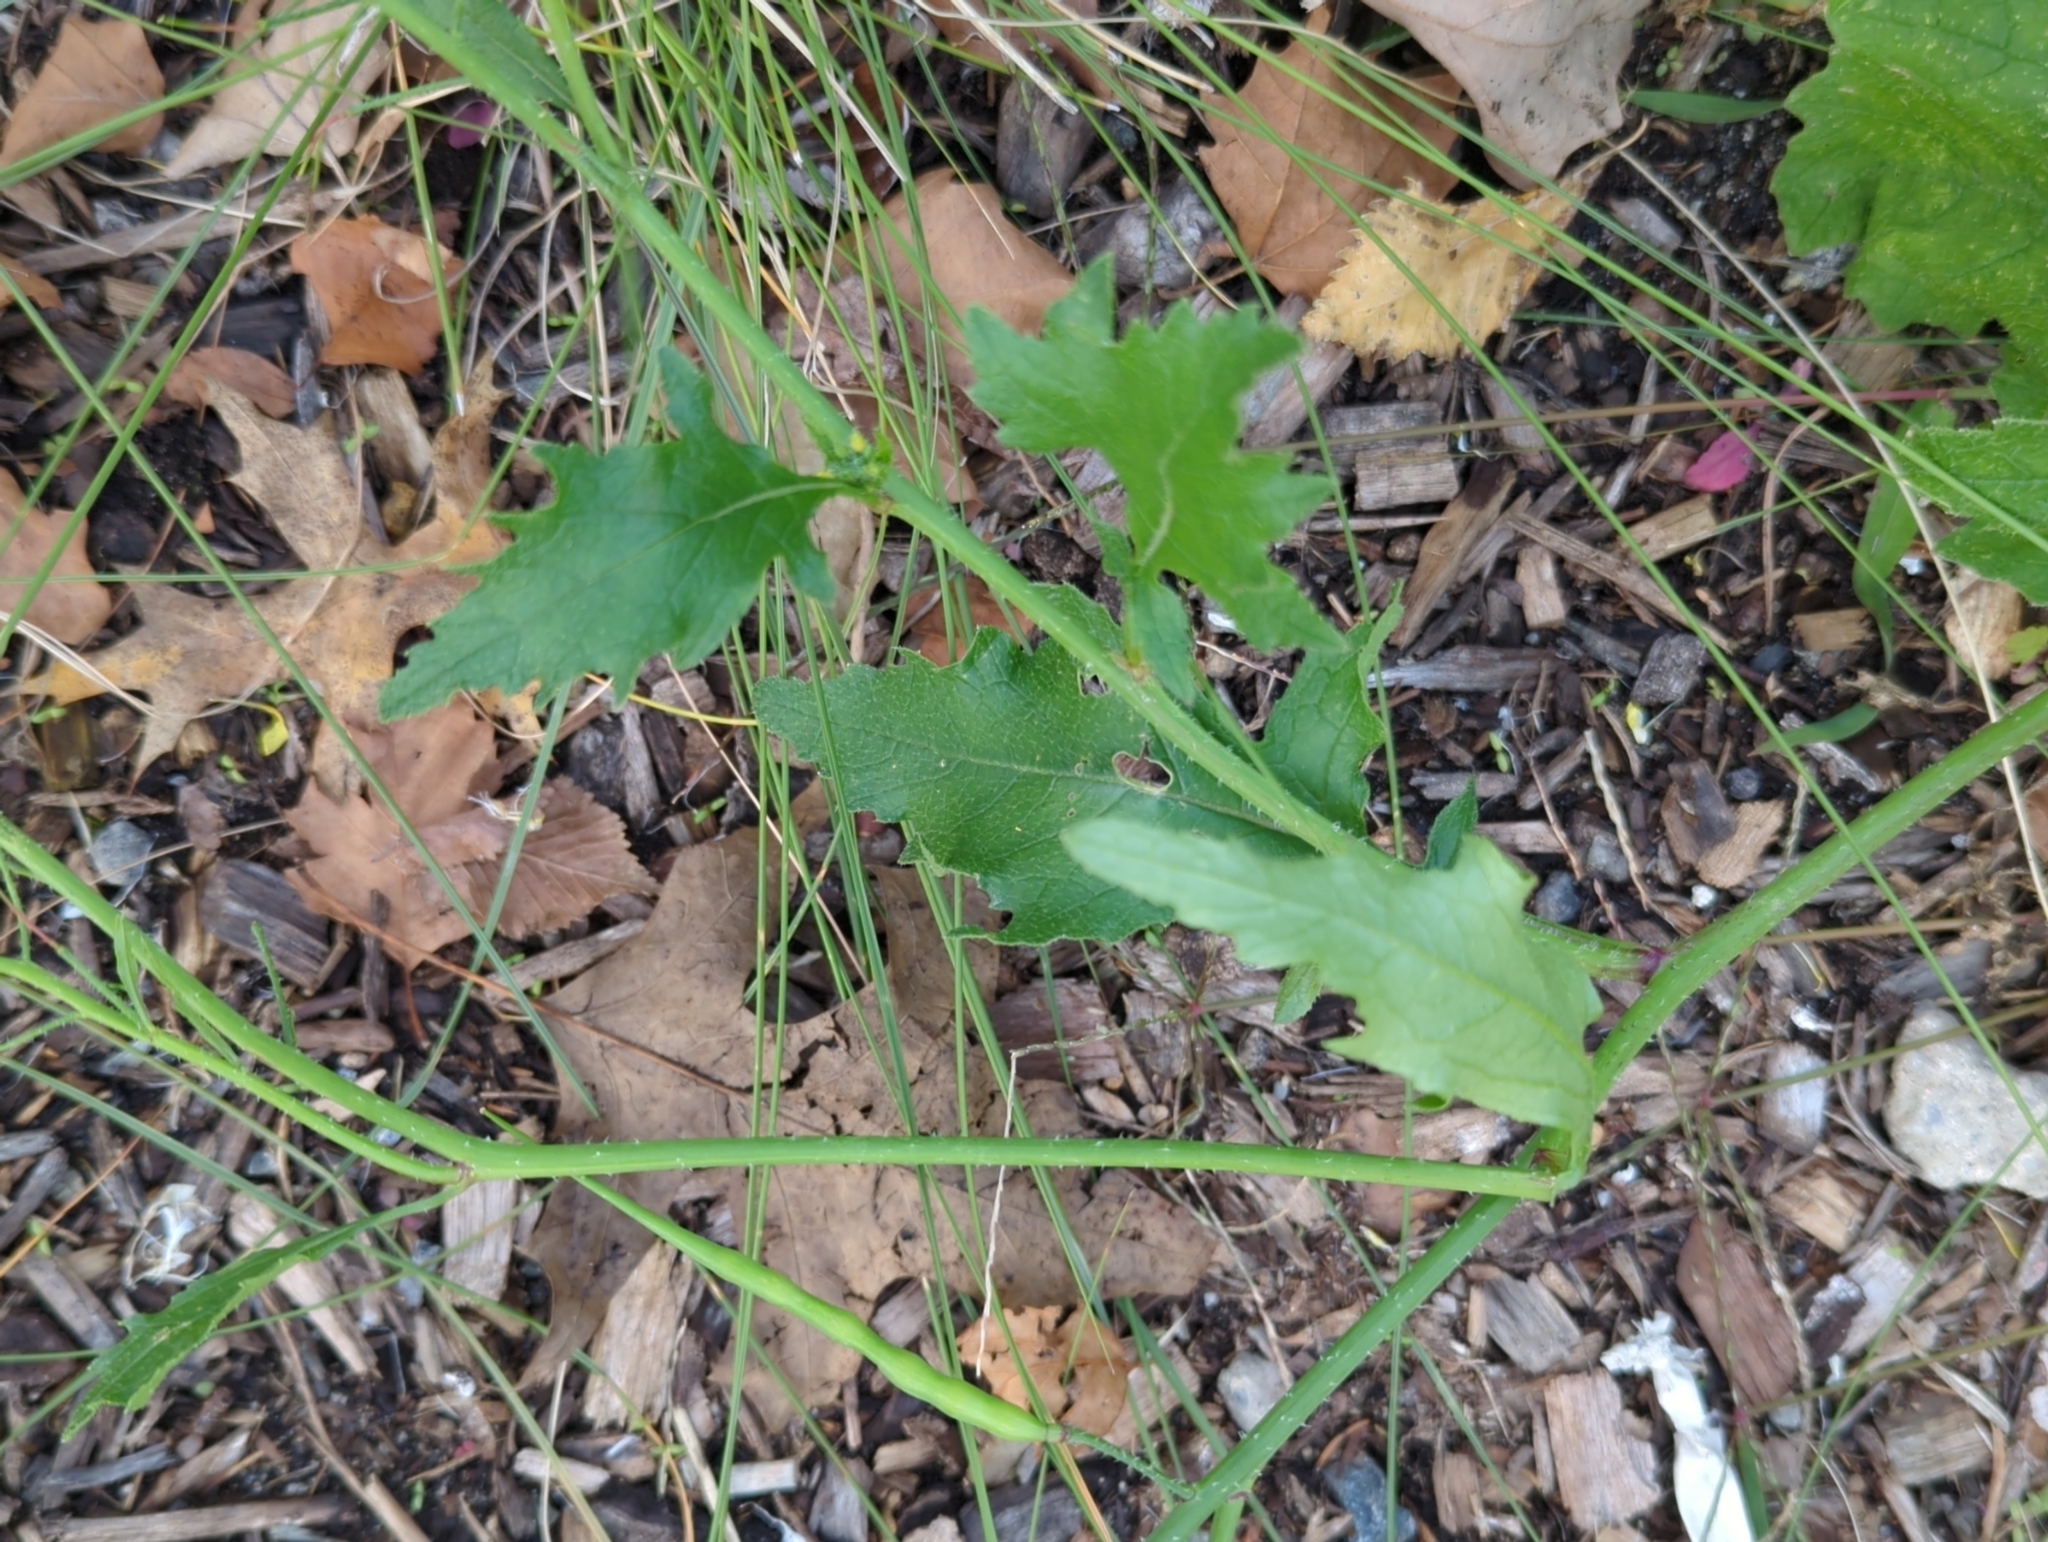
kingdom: Plantae
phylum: Tracheophyta
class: Magnoliopsida
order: Brassicales
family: Brassicaceae
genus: Raphanus
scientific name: Raphanus raphanistrum
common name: Wild radish
